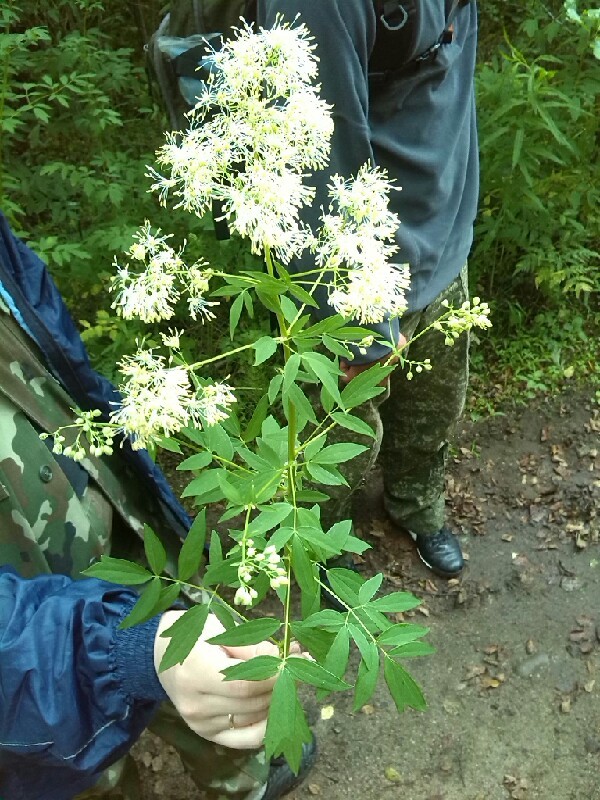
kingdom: Plantae
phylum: Tracheophyta
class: Magnoliopsida
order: Ranunculales
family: Ranunculaceae
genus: Thalictrum
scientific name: Thalictrum flavum
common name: Common meadow-rue
